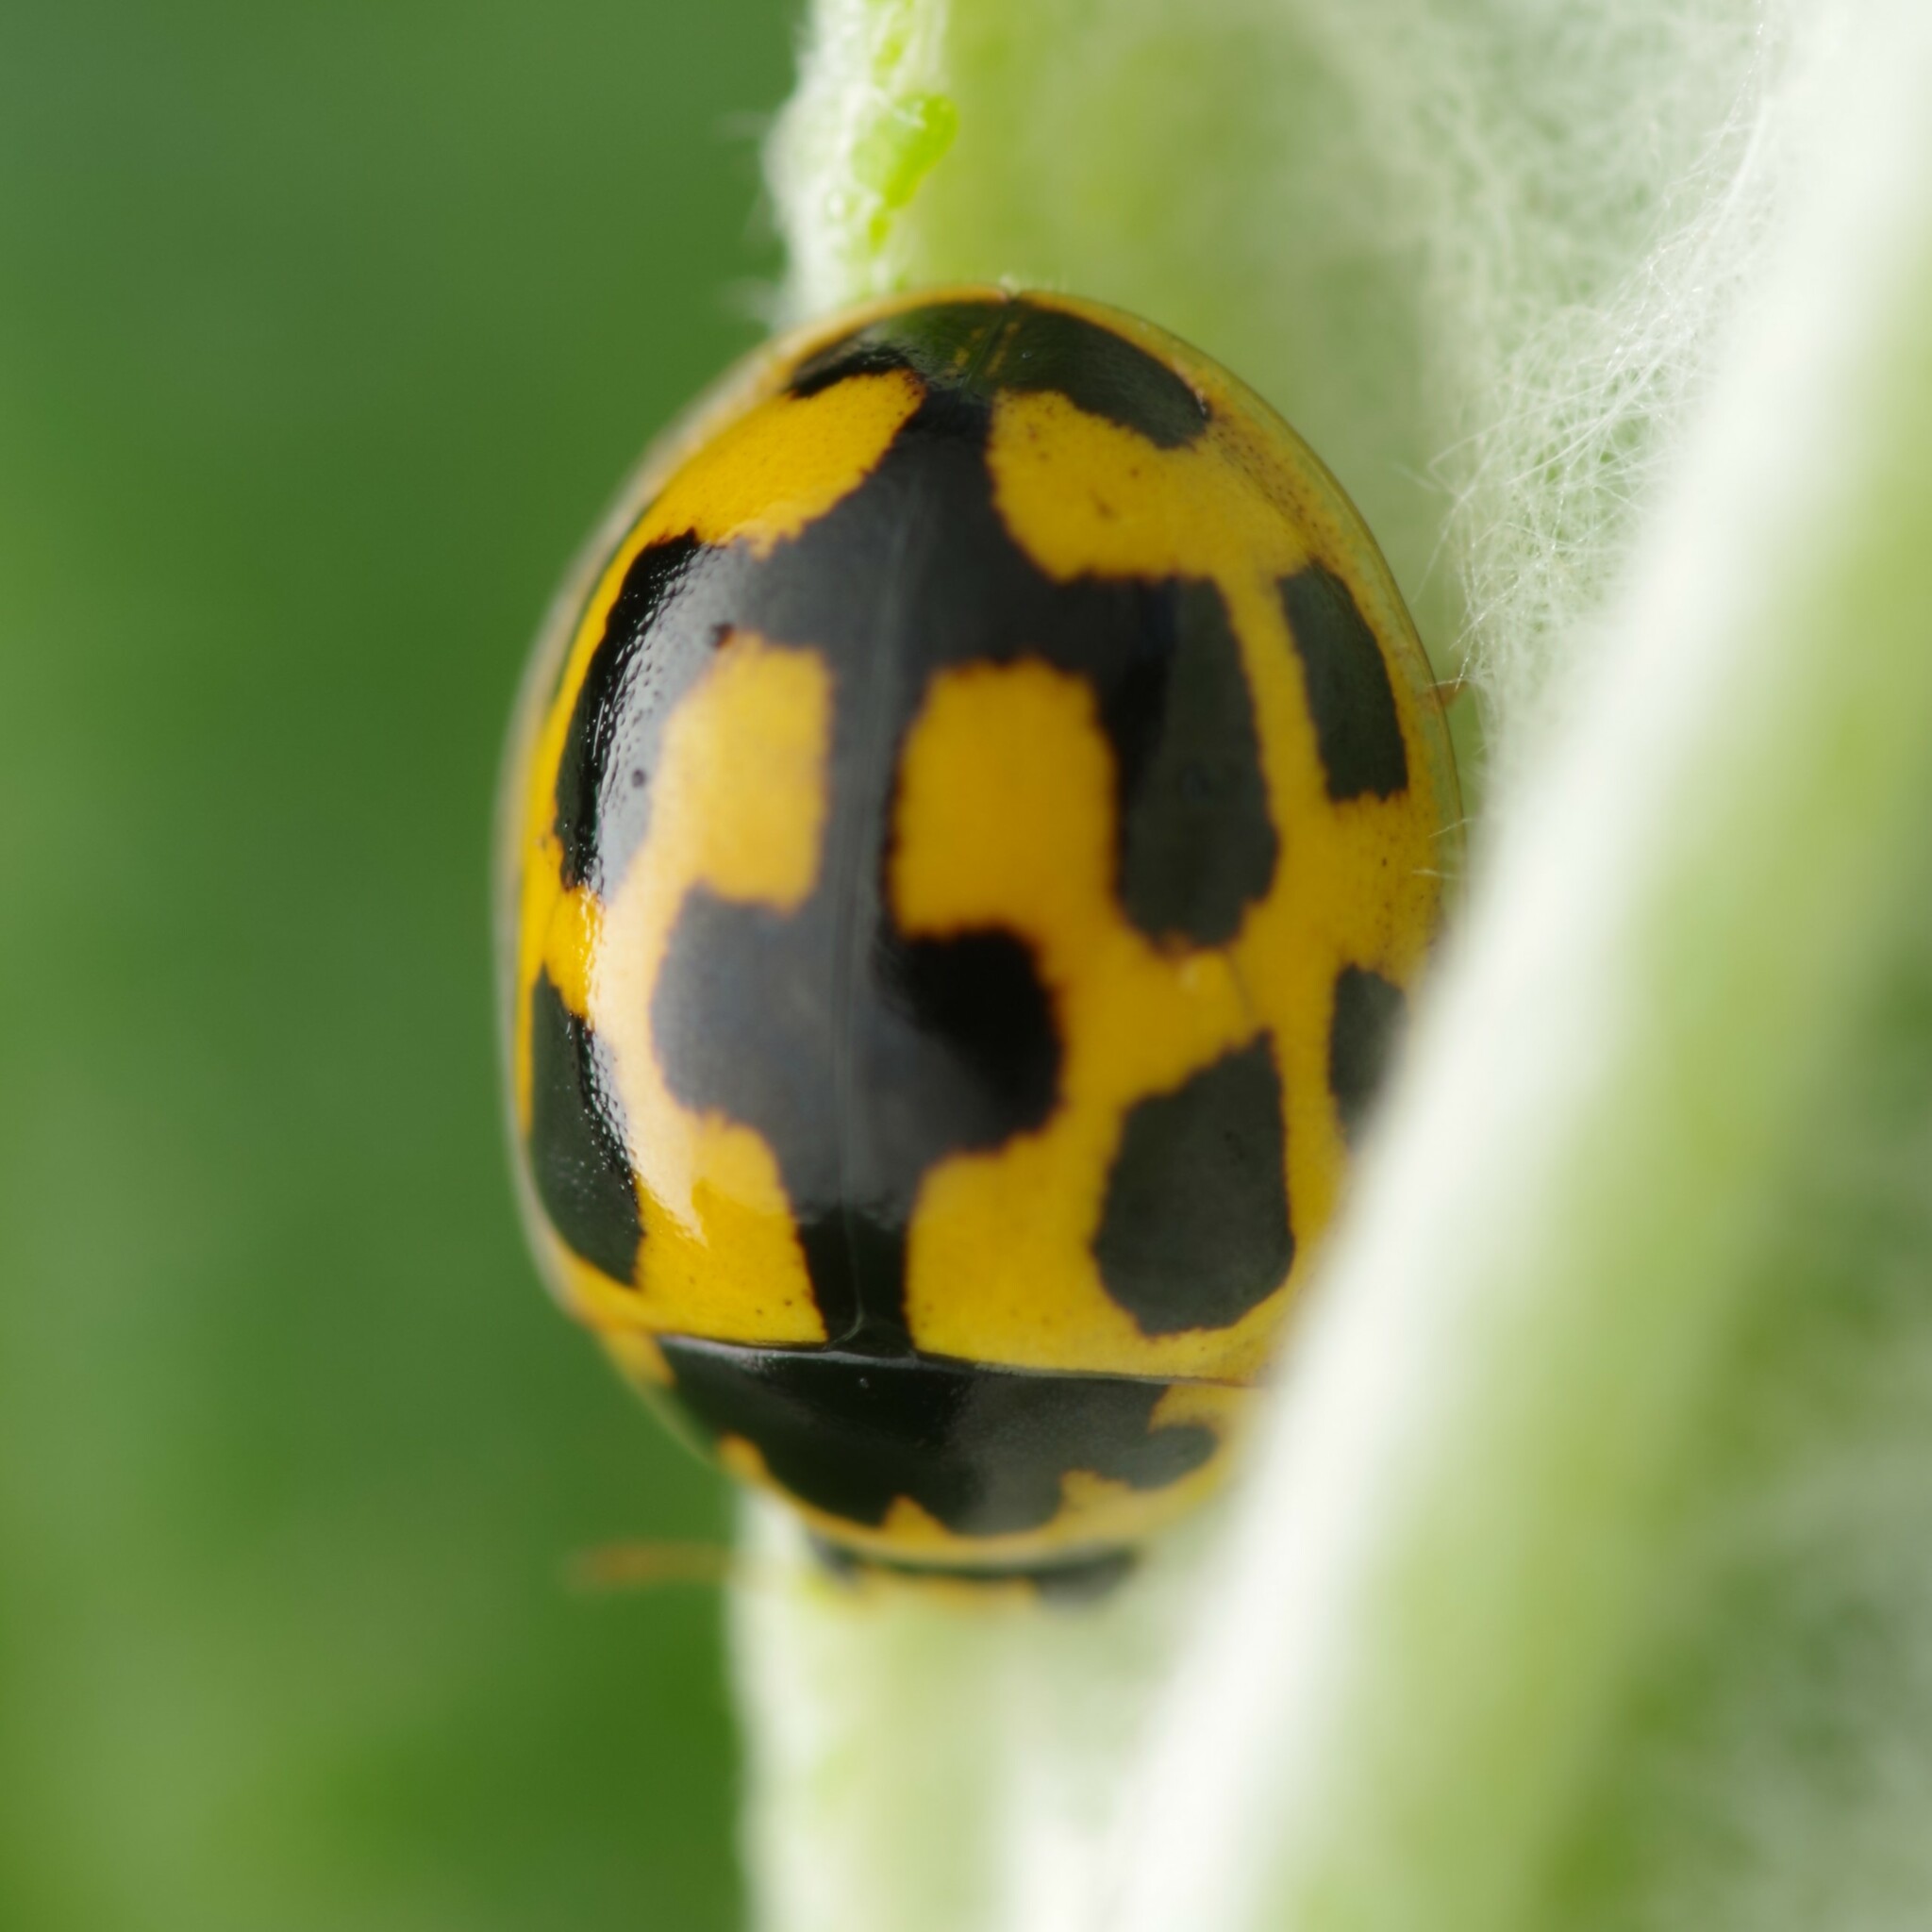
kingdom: Animalia
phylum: Arthropoda
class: Insecta
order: Coleoptera
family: Coccinellidae
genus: Propylaea
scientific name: Propylaea quatuordecimpunctata
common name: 14-spotted ladybird beetle
